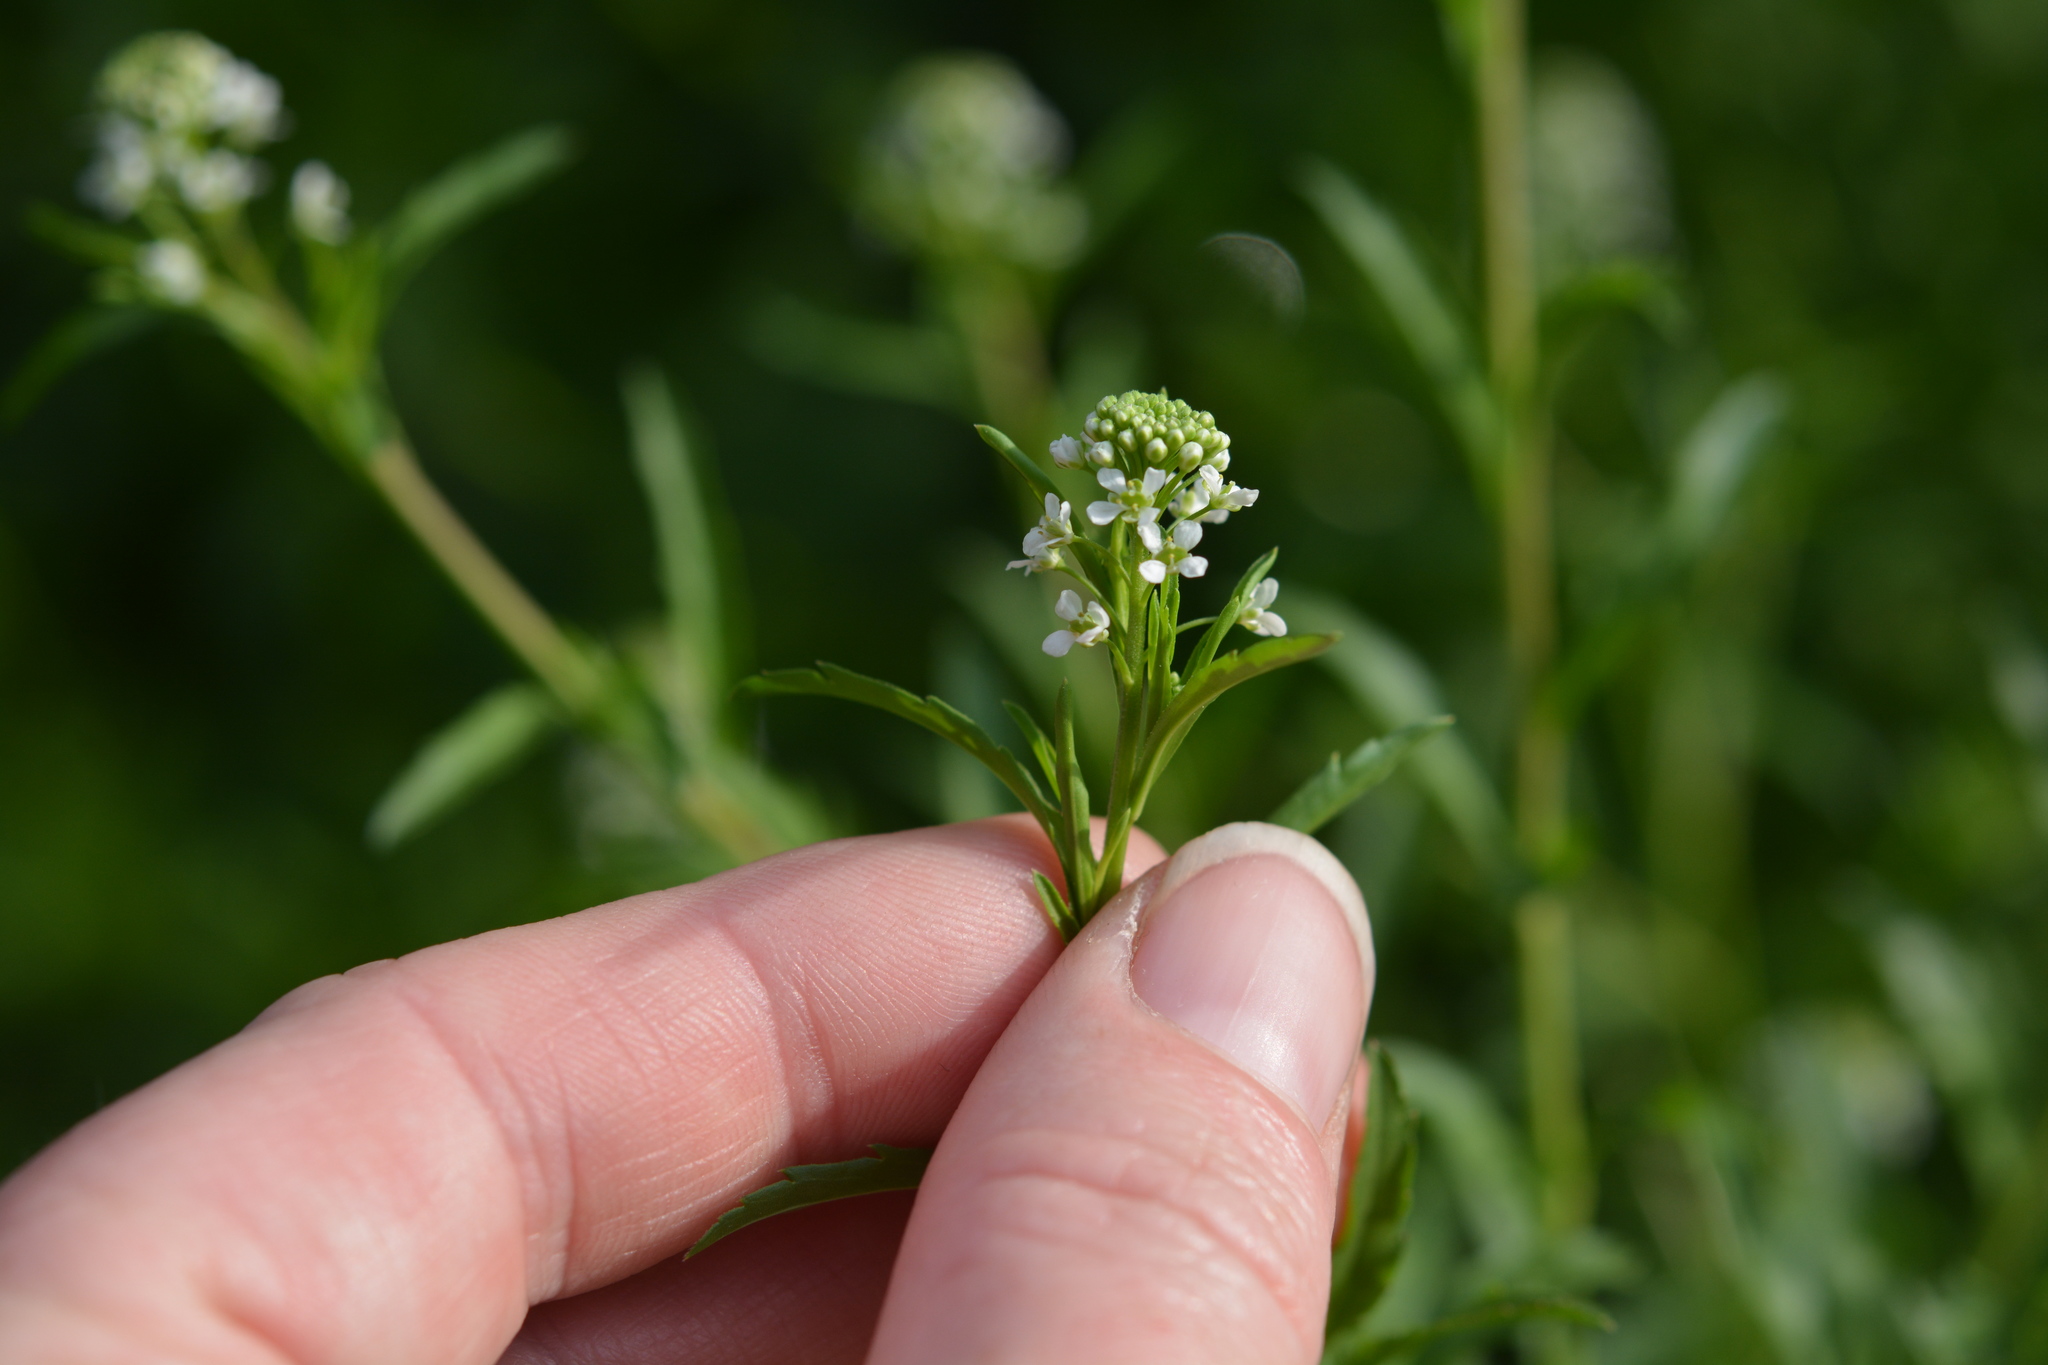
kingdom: Plantae
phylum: Tracheophyta
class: Magnoliopsida
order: Brassicales
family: Brassicaceae
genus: Lepidium
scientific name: Lepidium virginicum
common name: Least pepperwort
